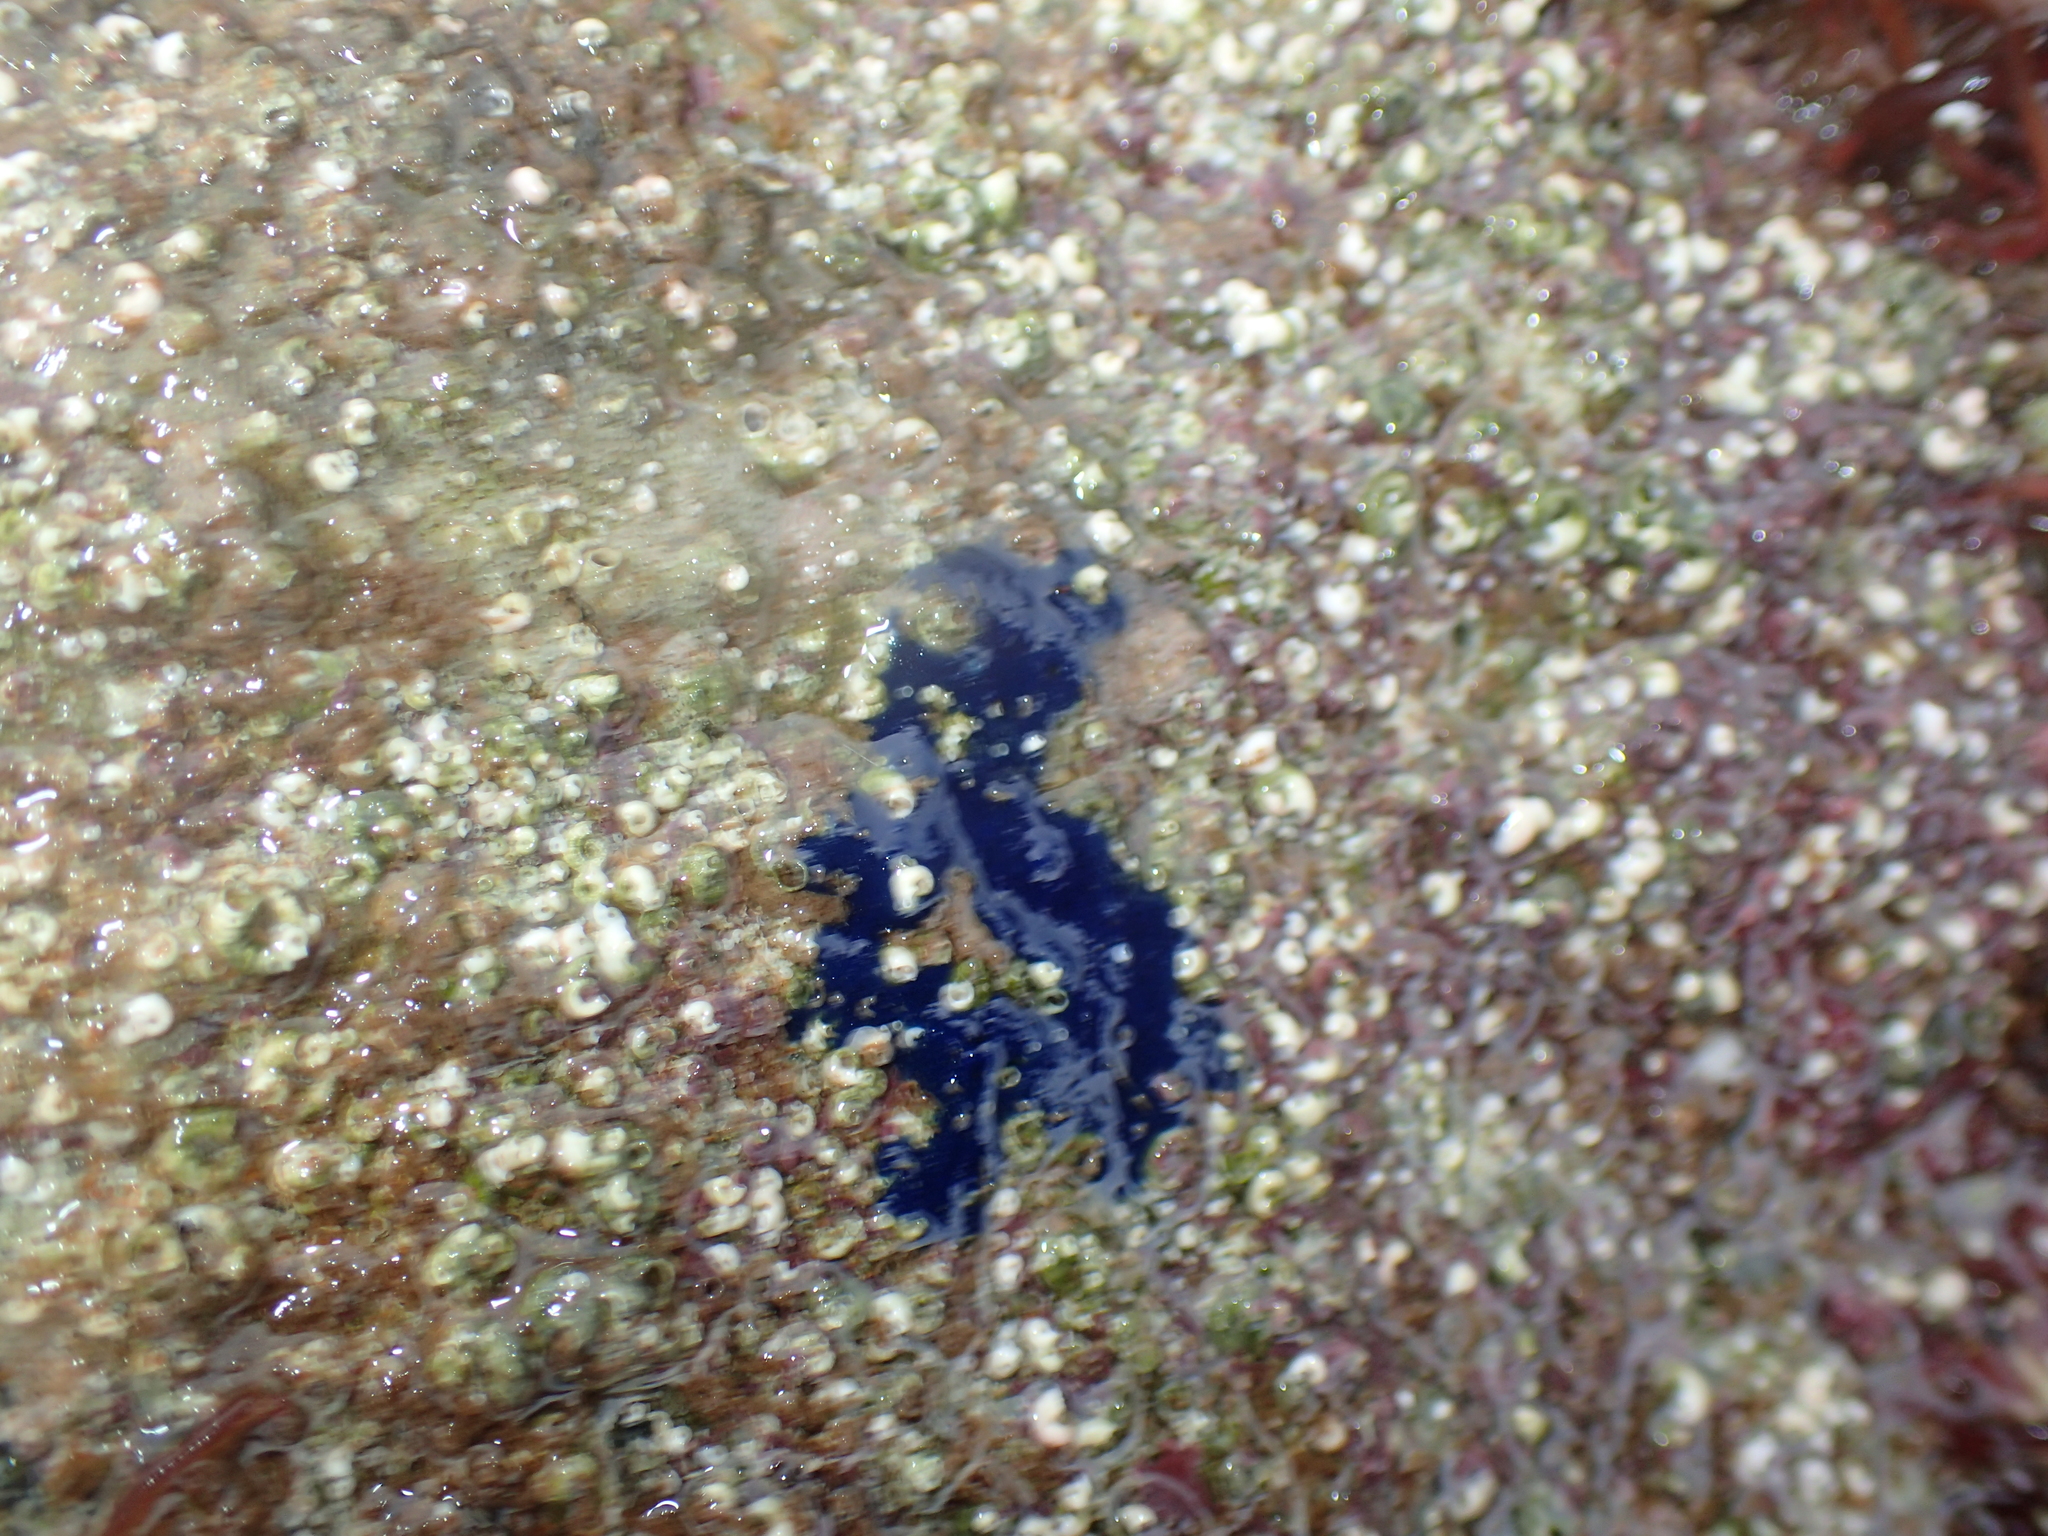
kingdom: Animalia
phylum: Porifera
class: Demospongiae
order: Suberitida
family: Suberitidae
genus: Terpios
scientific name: Terpios gelatinosus
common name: Blue encrusting sponge
